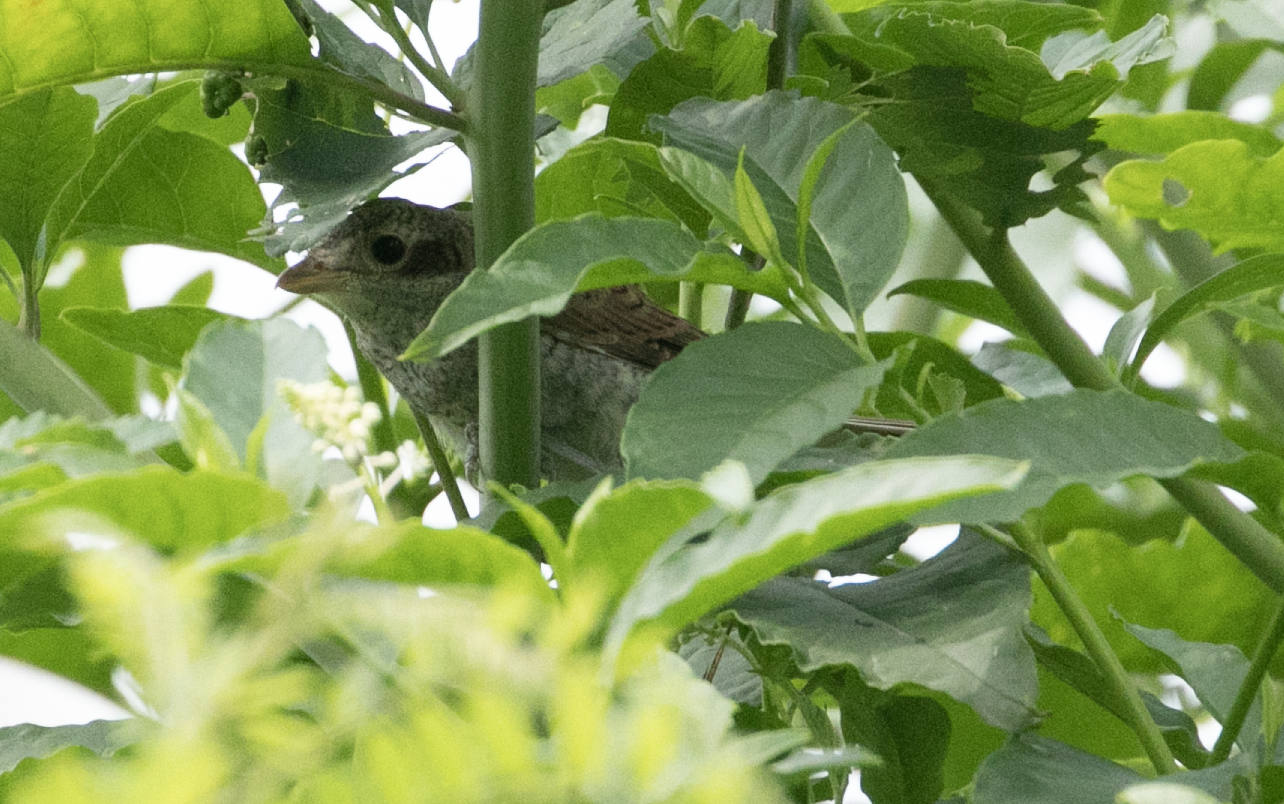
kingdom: Animalia
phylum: Chordata
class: Aves
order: Passeriformes
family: Laniidae
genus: Lanius
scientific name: Lanius collurio
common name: Red-backed shrike
